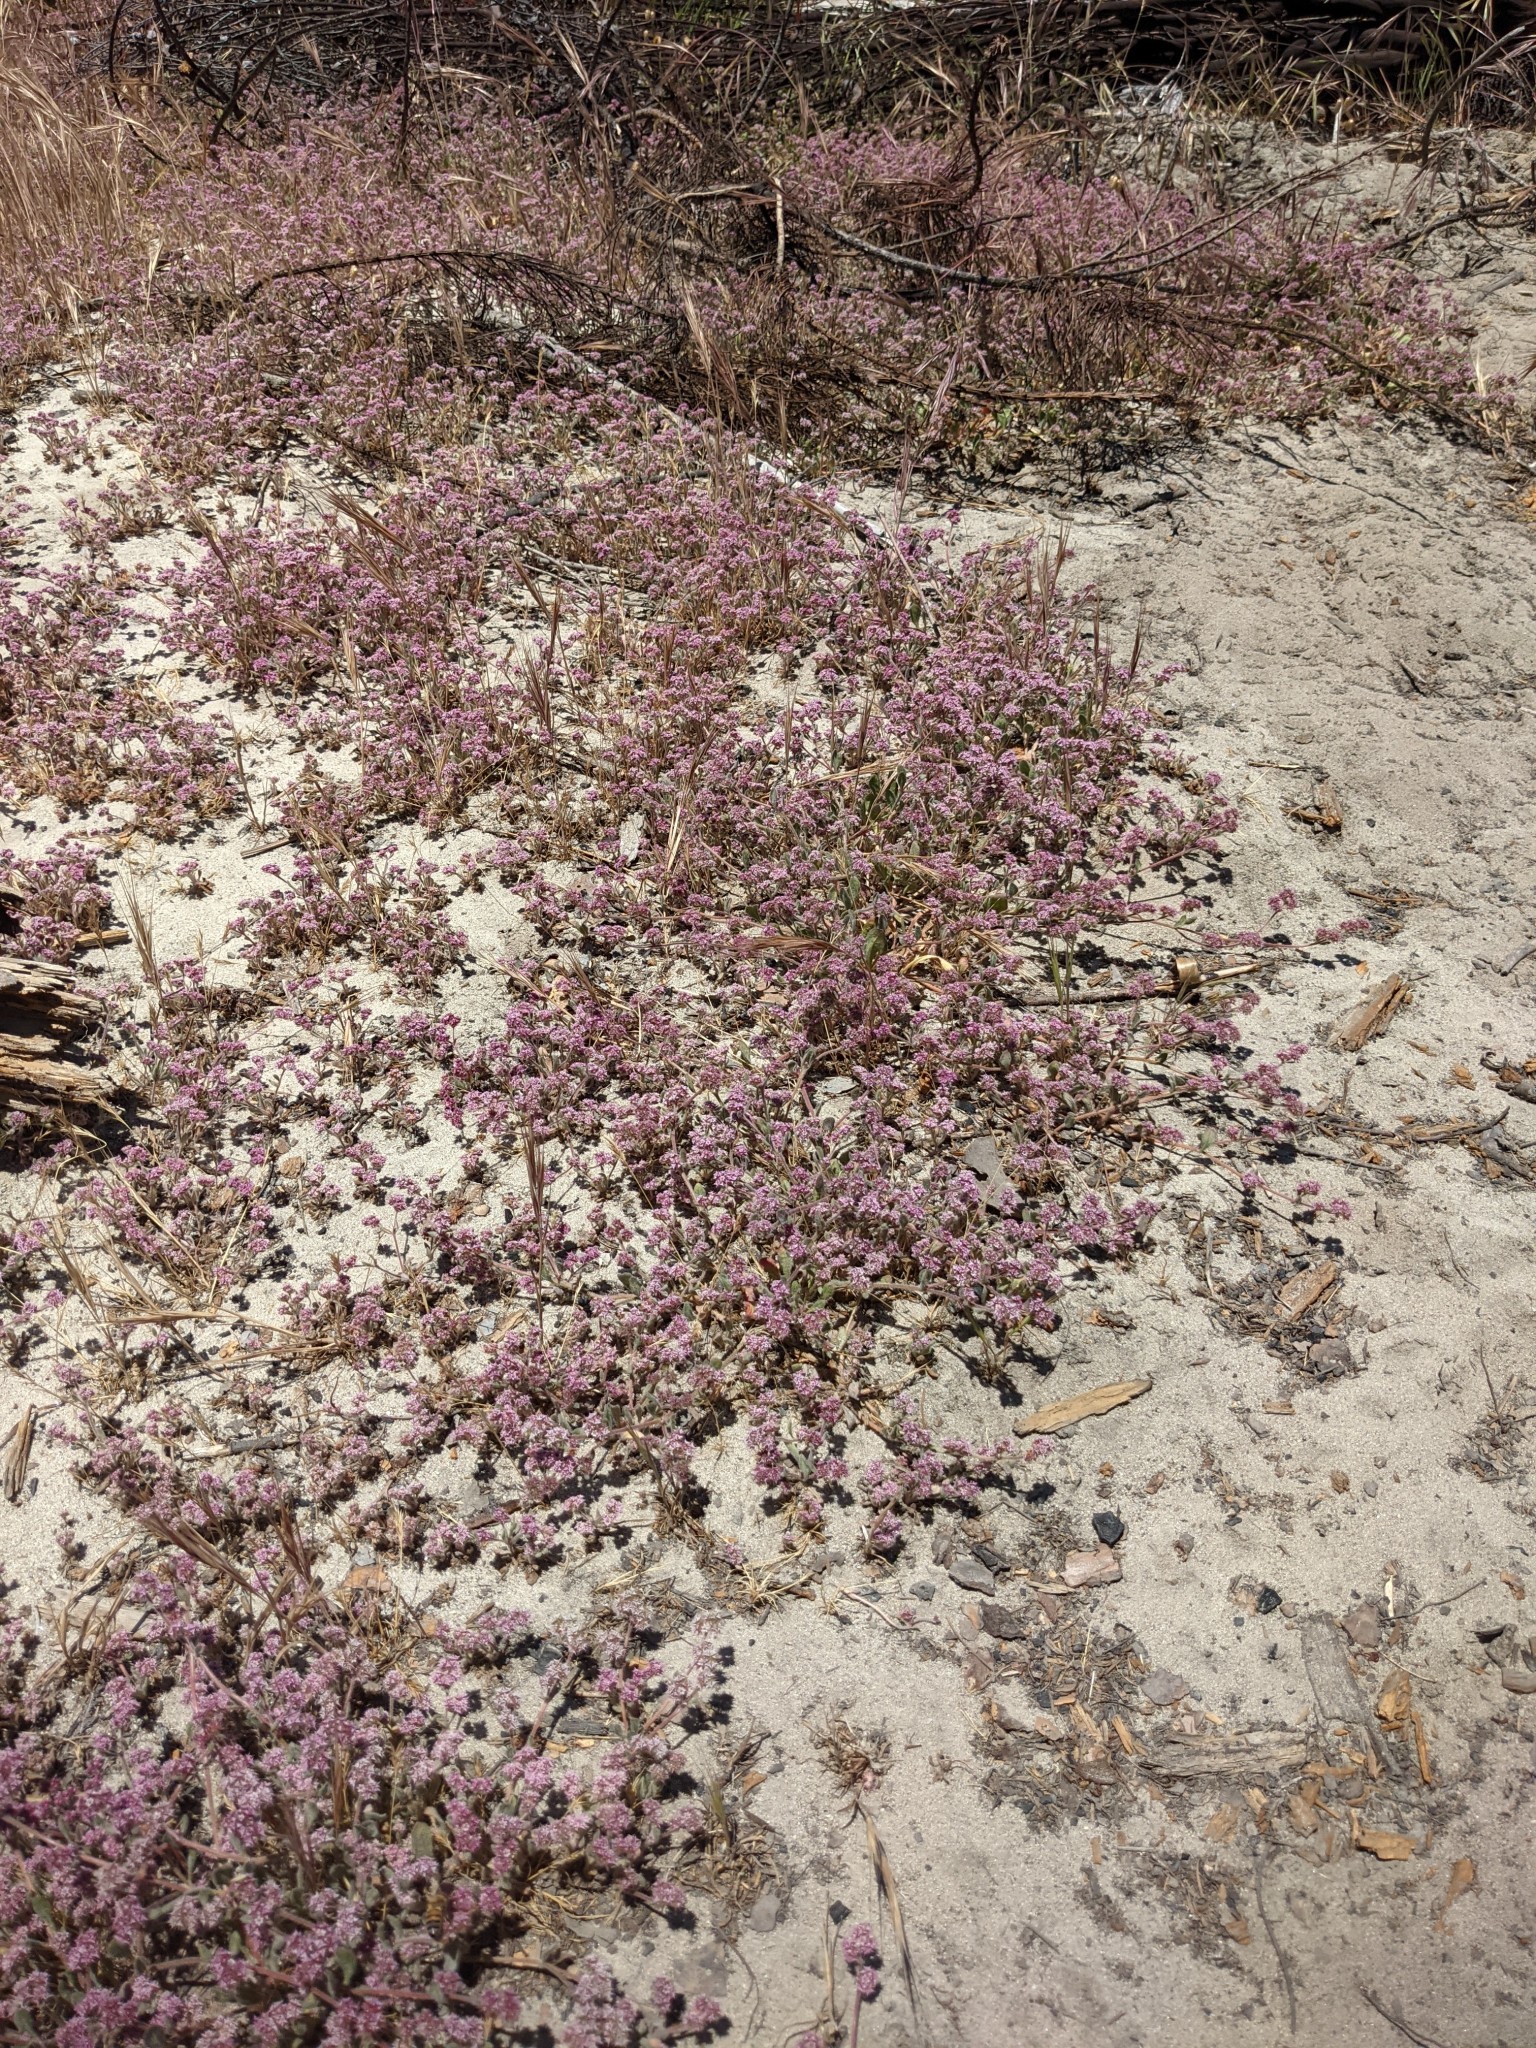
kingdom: Plantae
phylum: Tracheophyta
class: Magnoliopsida
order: Caryophyllales
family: Polygonaceae
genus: Chorizanthe
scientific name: Chorizanthe pungens
